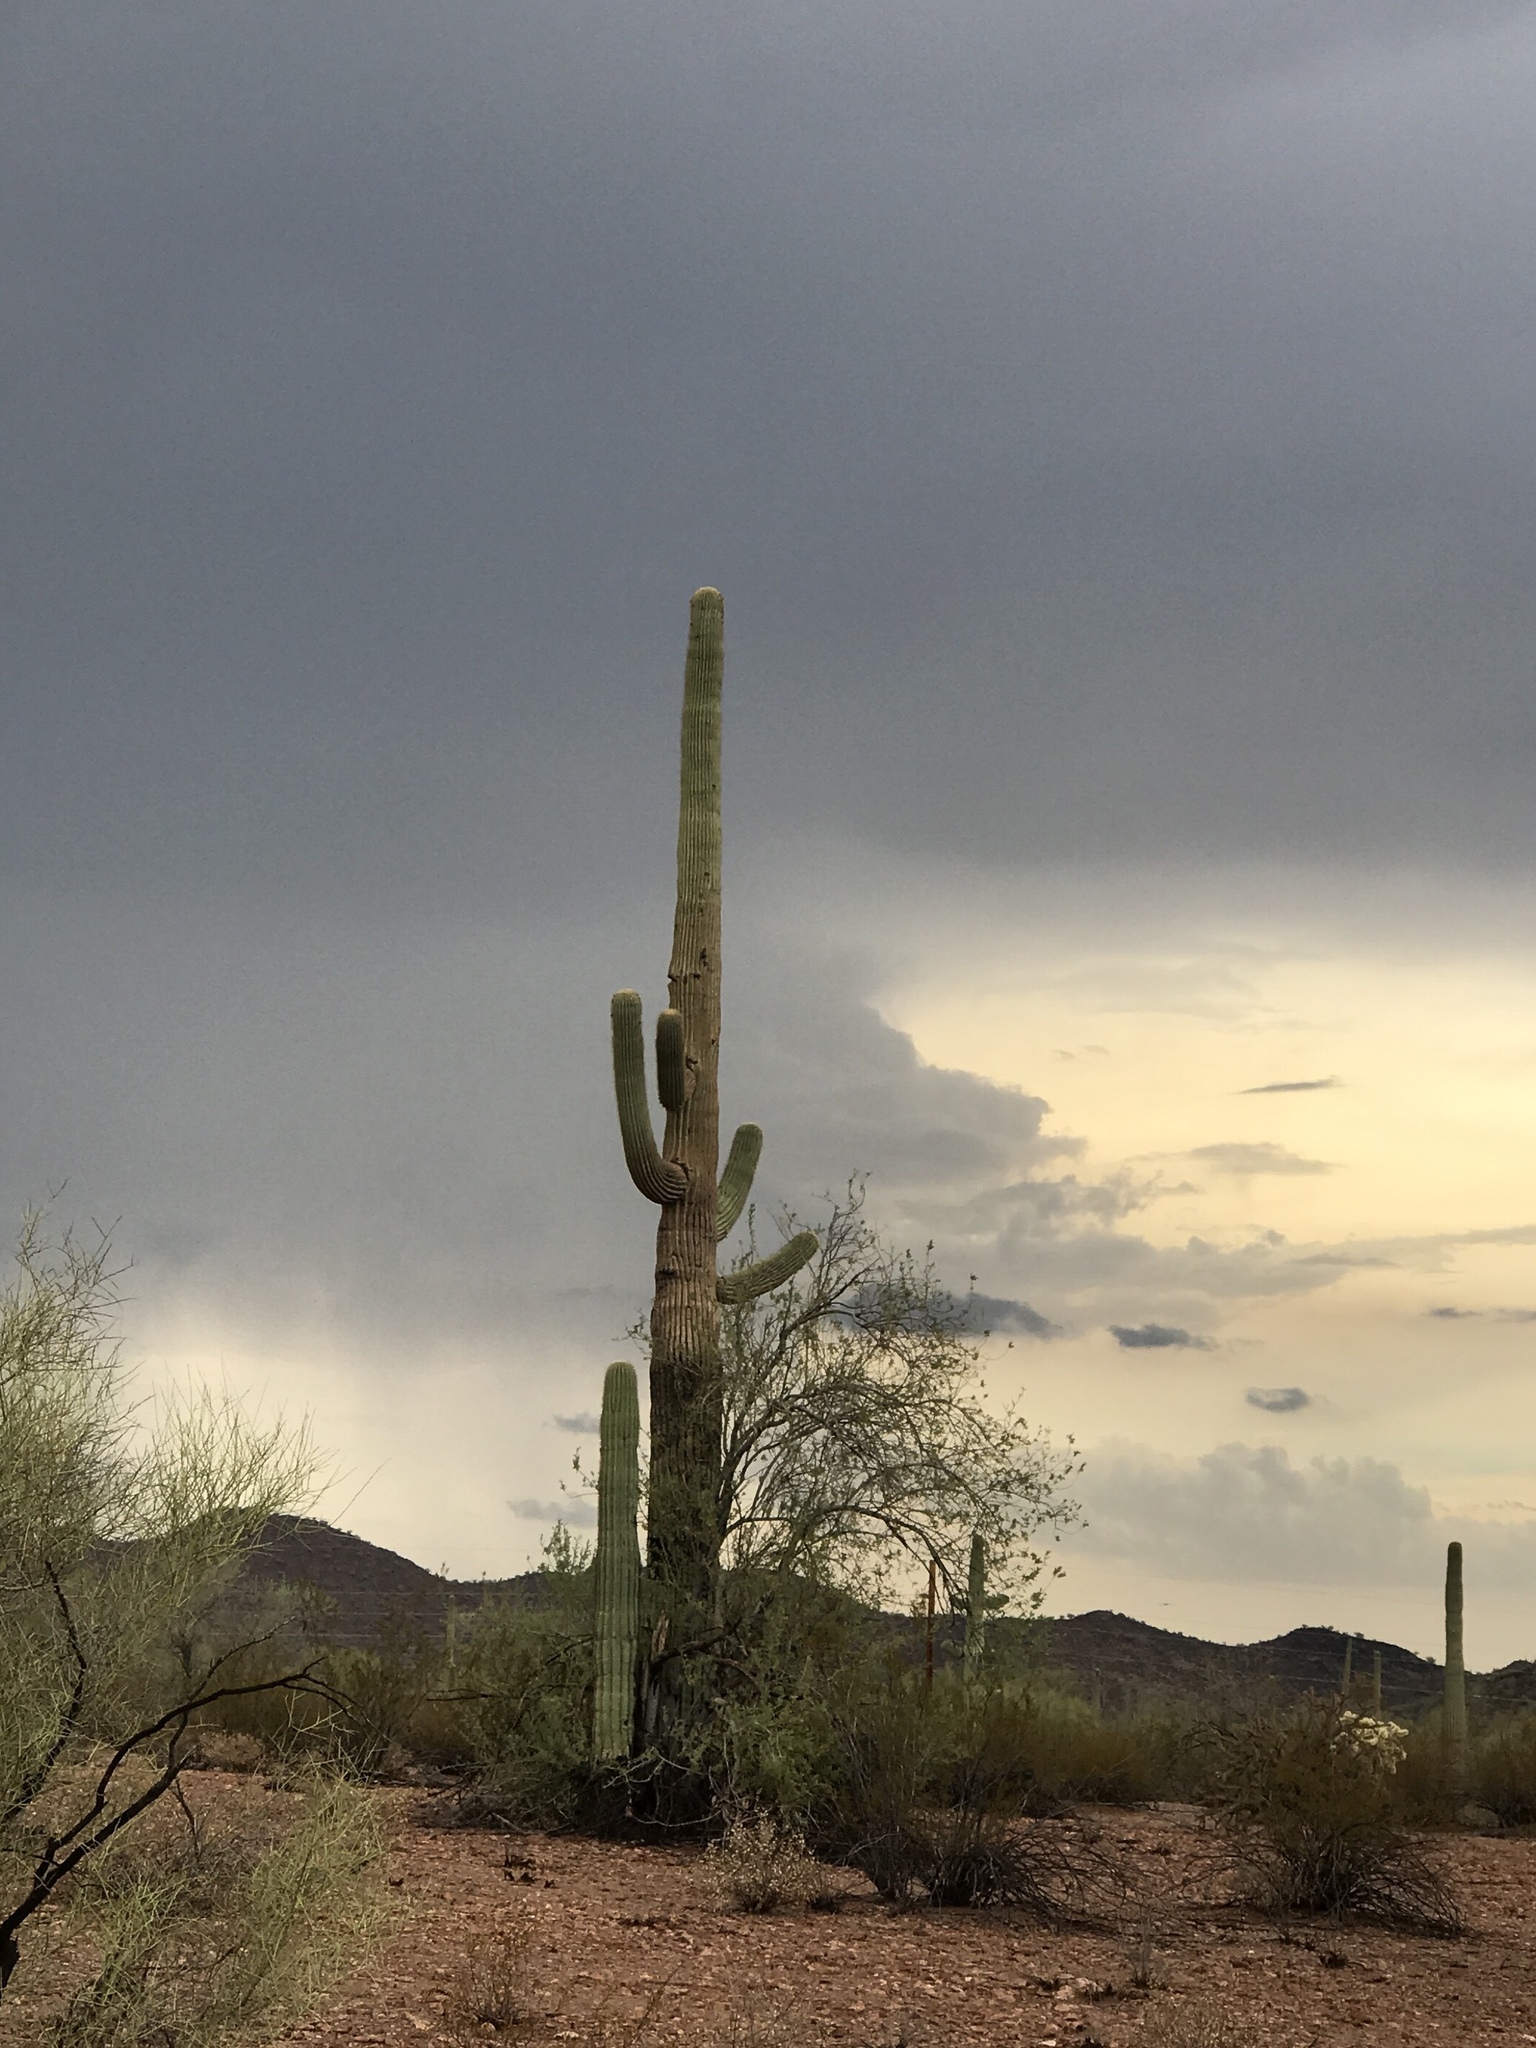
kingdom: Plantae
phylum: Tracheophyta
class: Magnoliopsida
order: Caryophyllales
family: Cactaceae
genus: Carnegiea
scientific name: Carnegiea gigantea
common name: Saguaro
